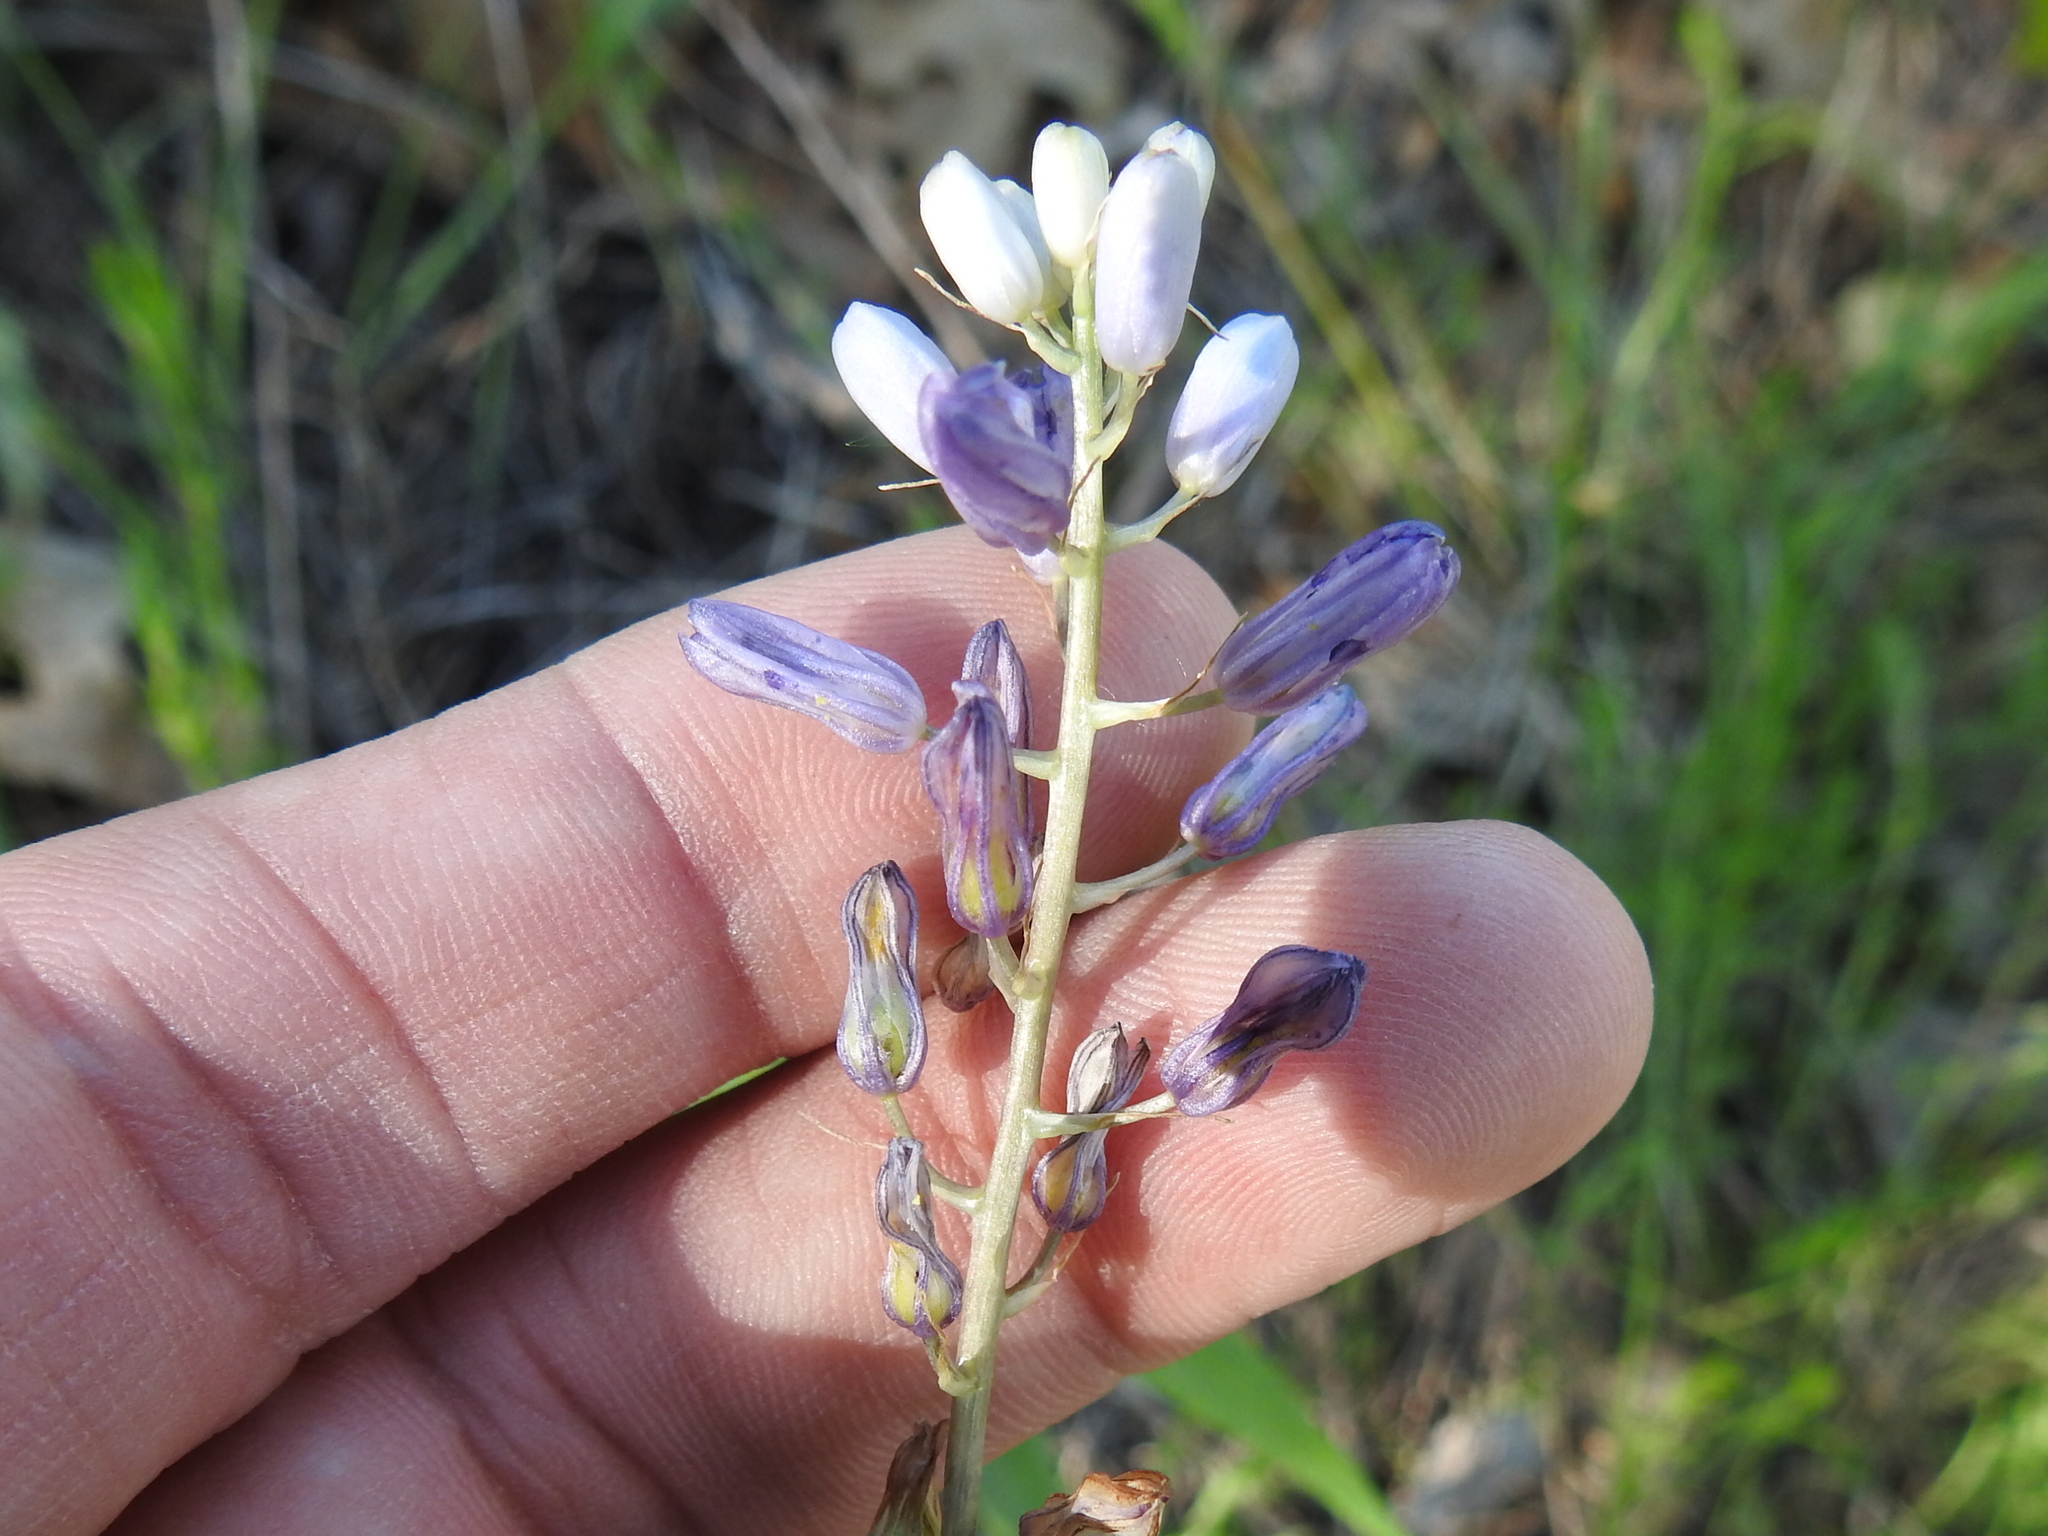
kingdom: Plantae
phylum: Tracheophyta
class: Liliopsida
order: Asparagales
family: Asparagaceae
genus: Camassia
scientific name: Camassia scilloides
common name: Wild hyacinth
